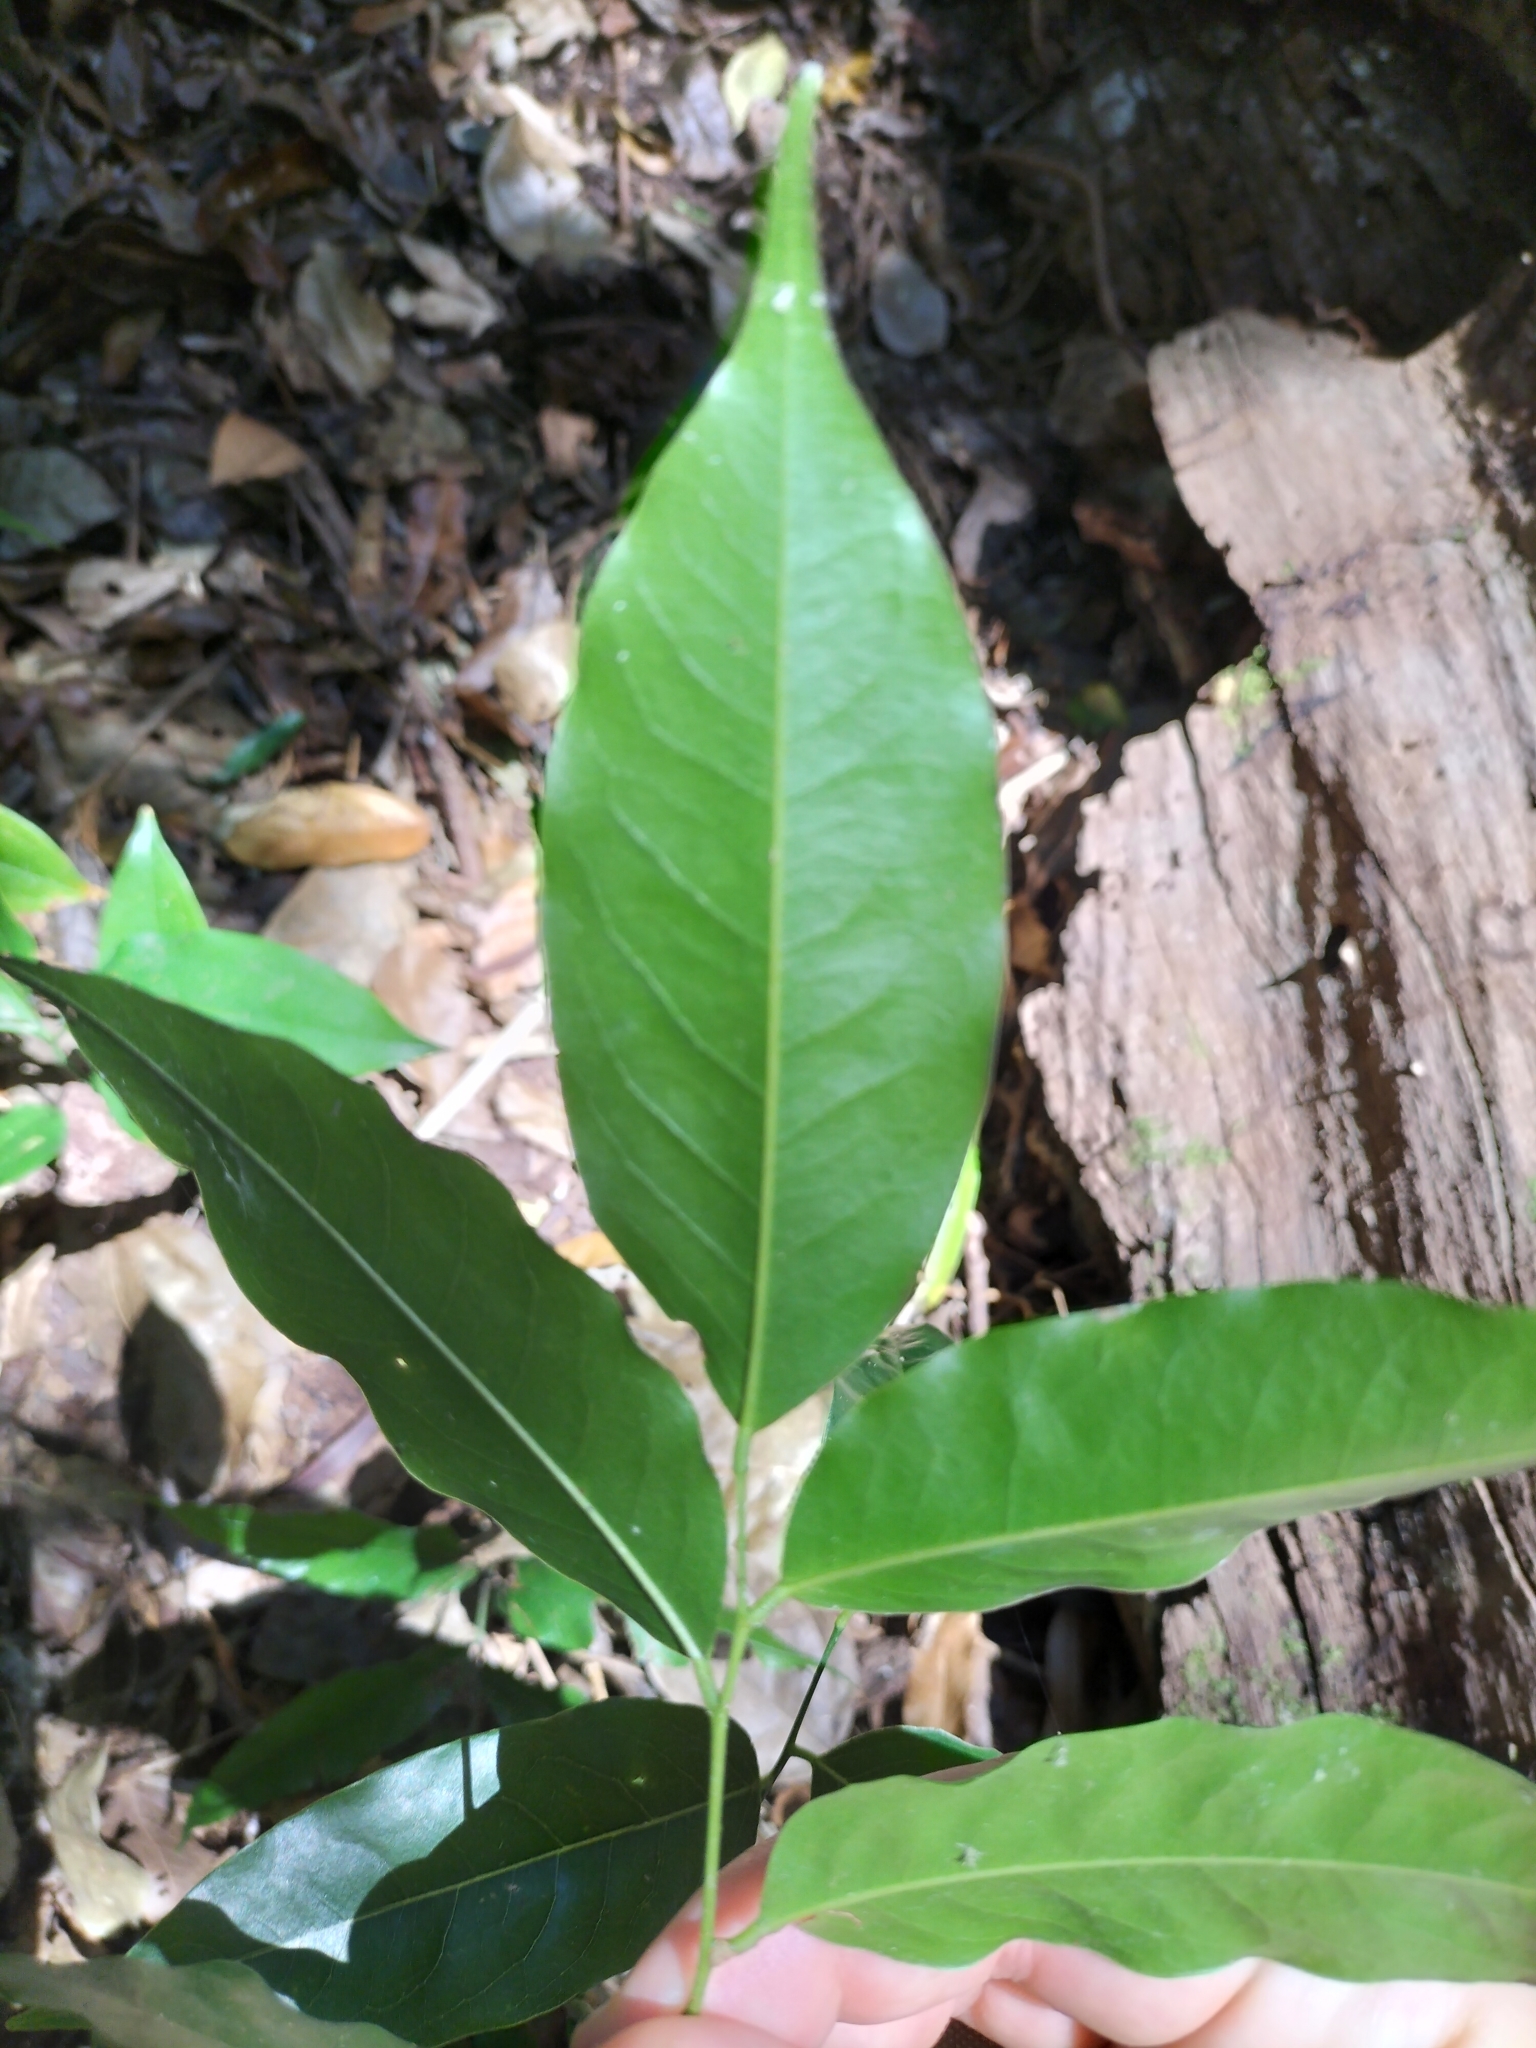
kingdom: Plantae
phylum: Tracheophyta
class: Magnoliopsida
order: Fabales
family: Fabaceae
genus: Castanospermum
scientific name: Castanospermum australe
